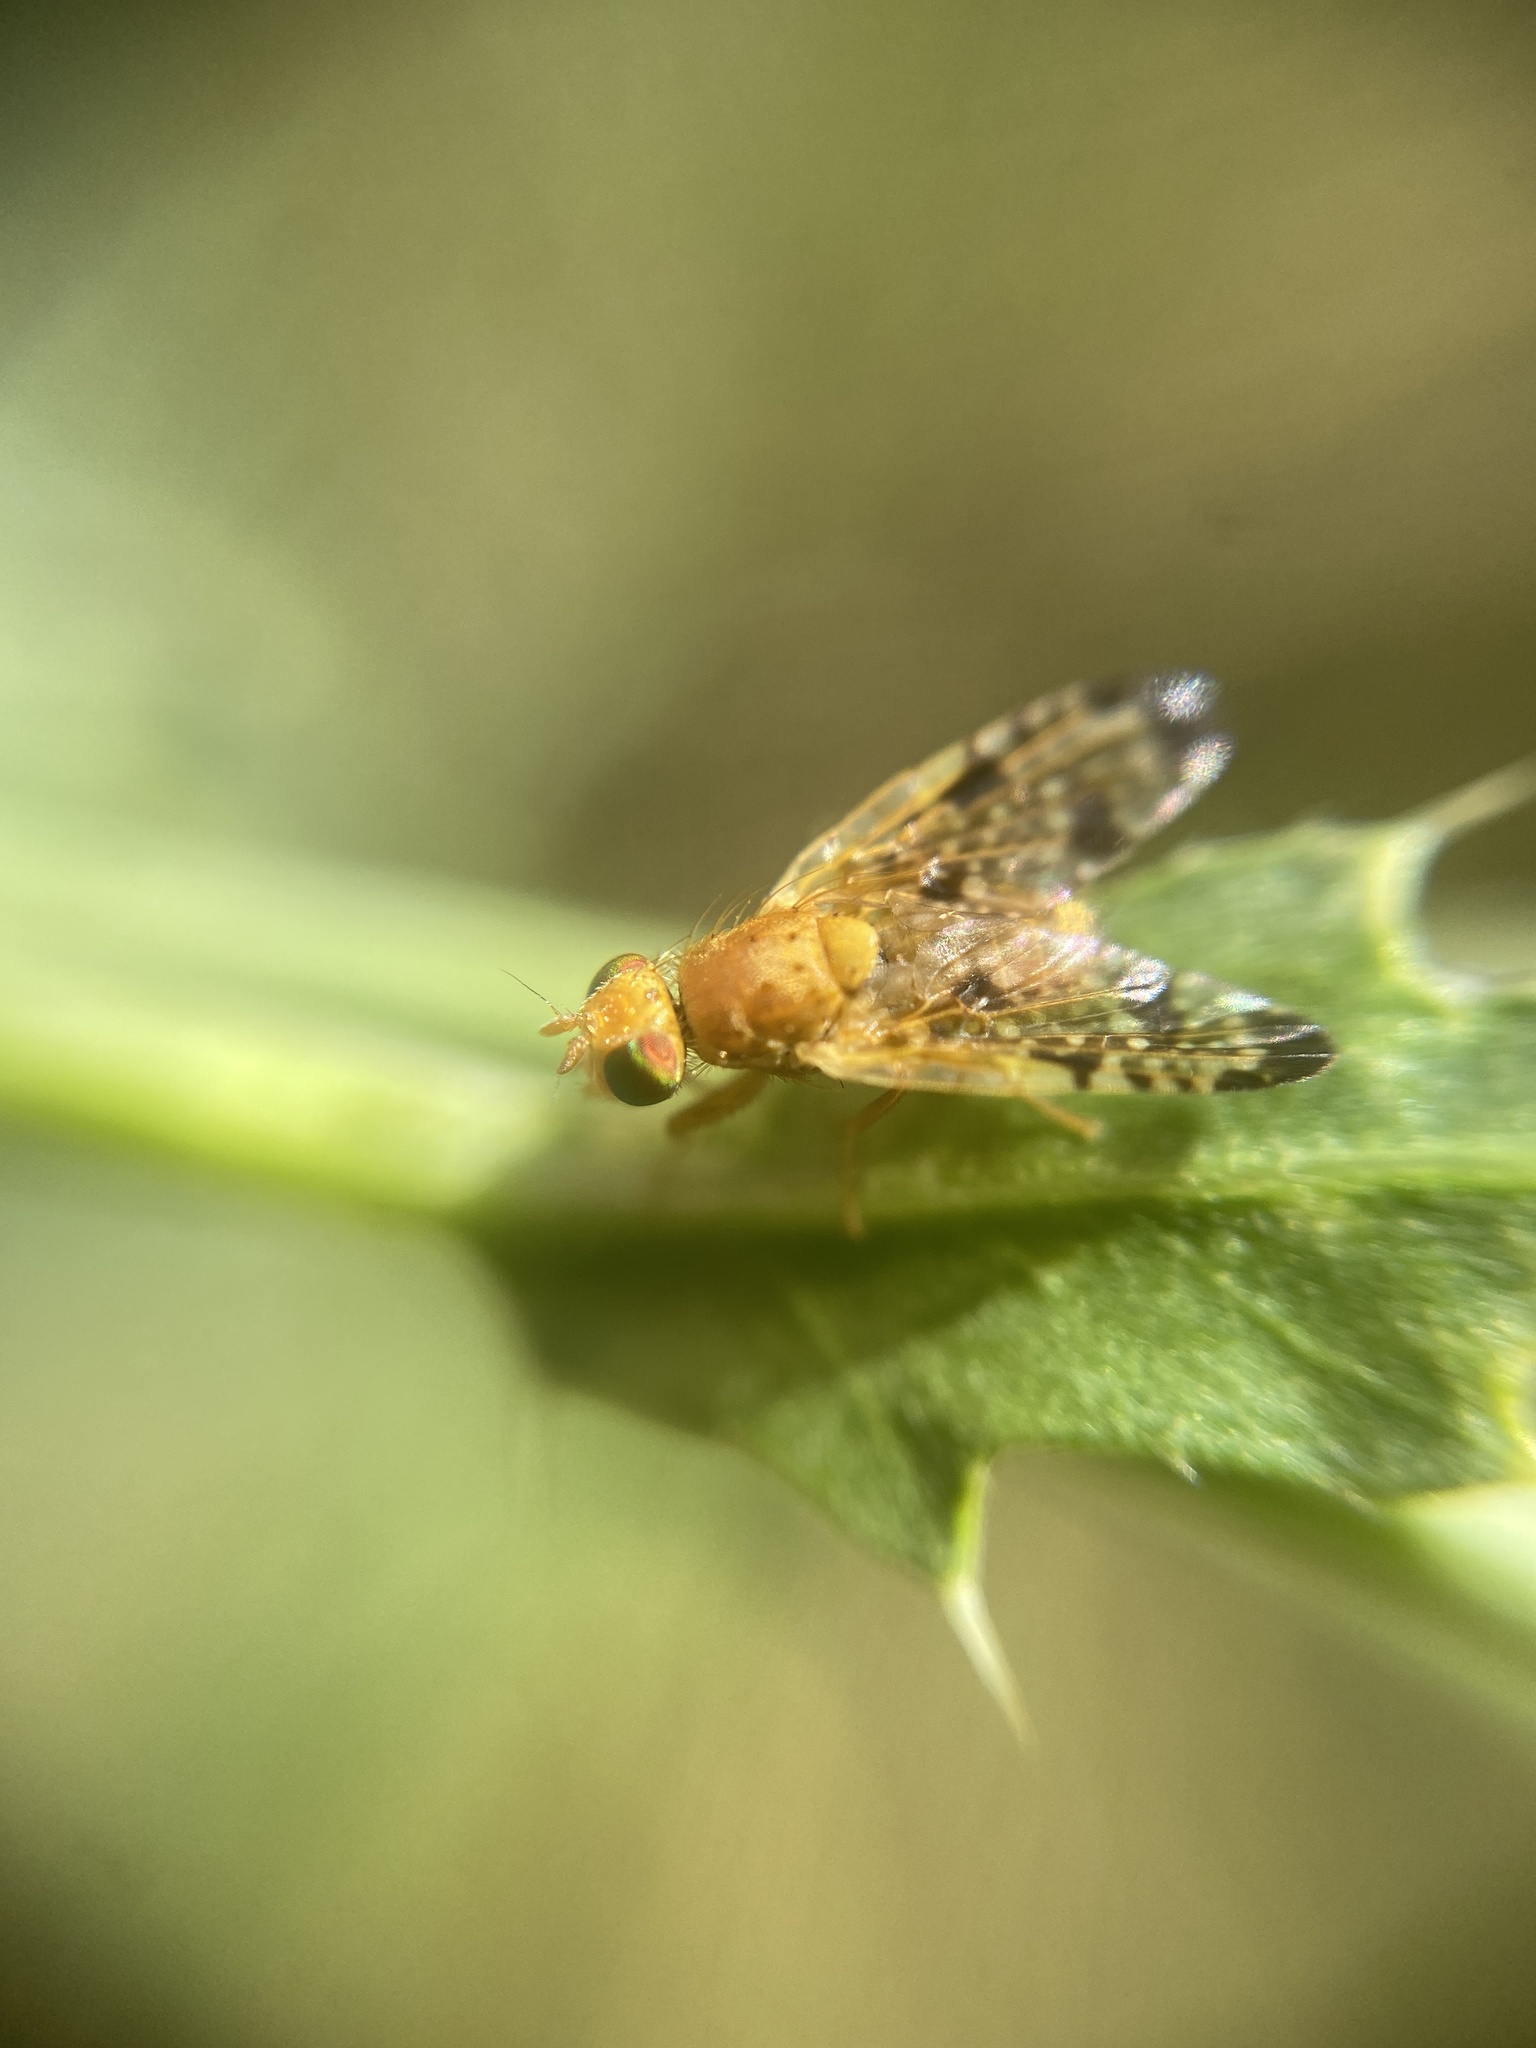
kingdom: Animalia
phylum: Arthropoda
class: Insecta
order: Diptera
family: Tephritidae
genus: Xyphosia
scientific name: Xyphosia miliaria
